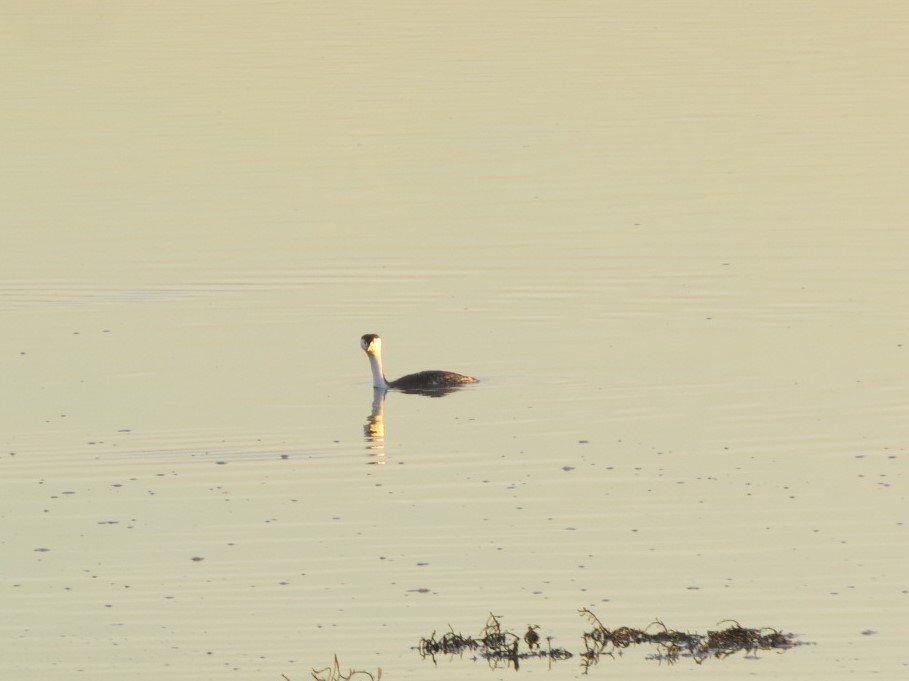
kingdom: Animalia
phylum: Chordata
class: Aves
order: Podicipediformes
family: Podicipedidae
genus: Aechmophorus
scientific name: Aechmophorus clarkii
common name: Clark's grebe
